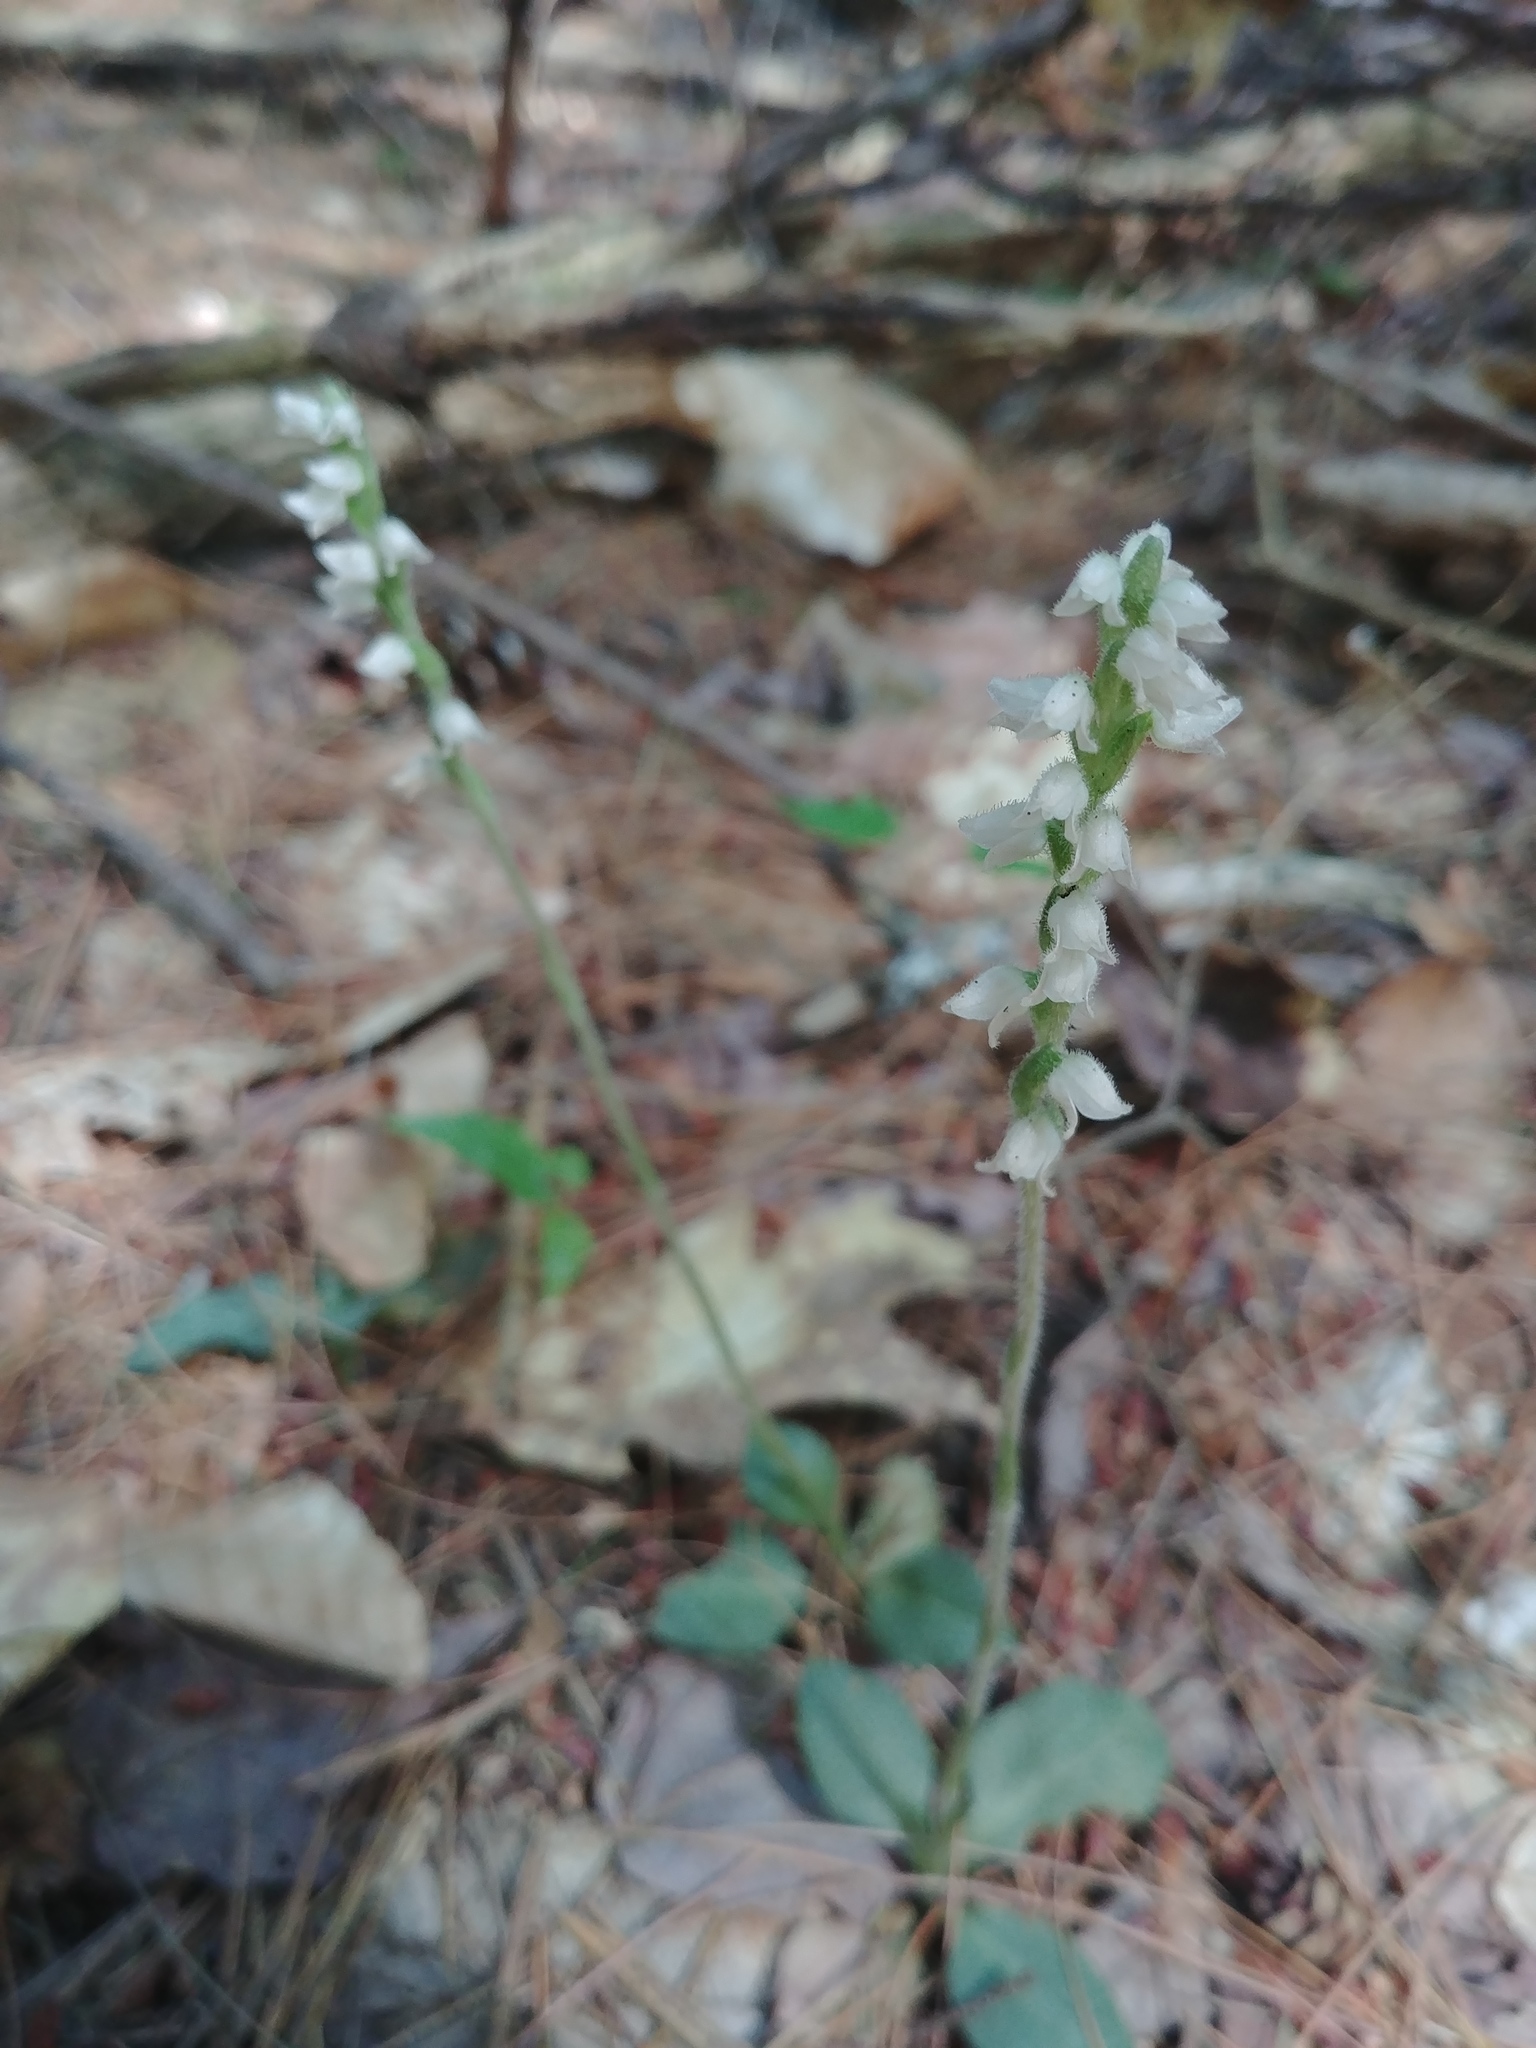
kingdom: Plantae
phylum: Tracheophyta
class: Liliopsida
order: Asparagales
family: Orchidaceae
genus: Goodyera
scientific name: Goodyera tesselata
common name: Checkered rattlesnake-plantain
